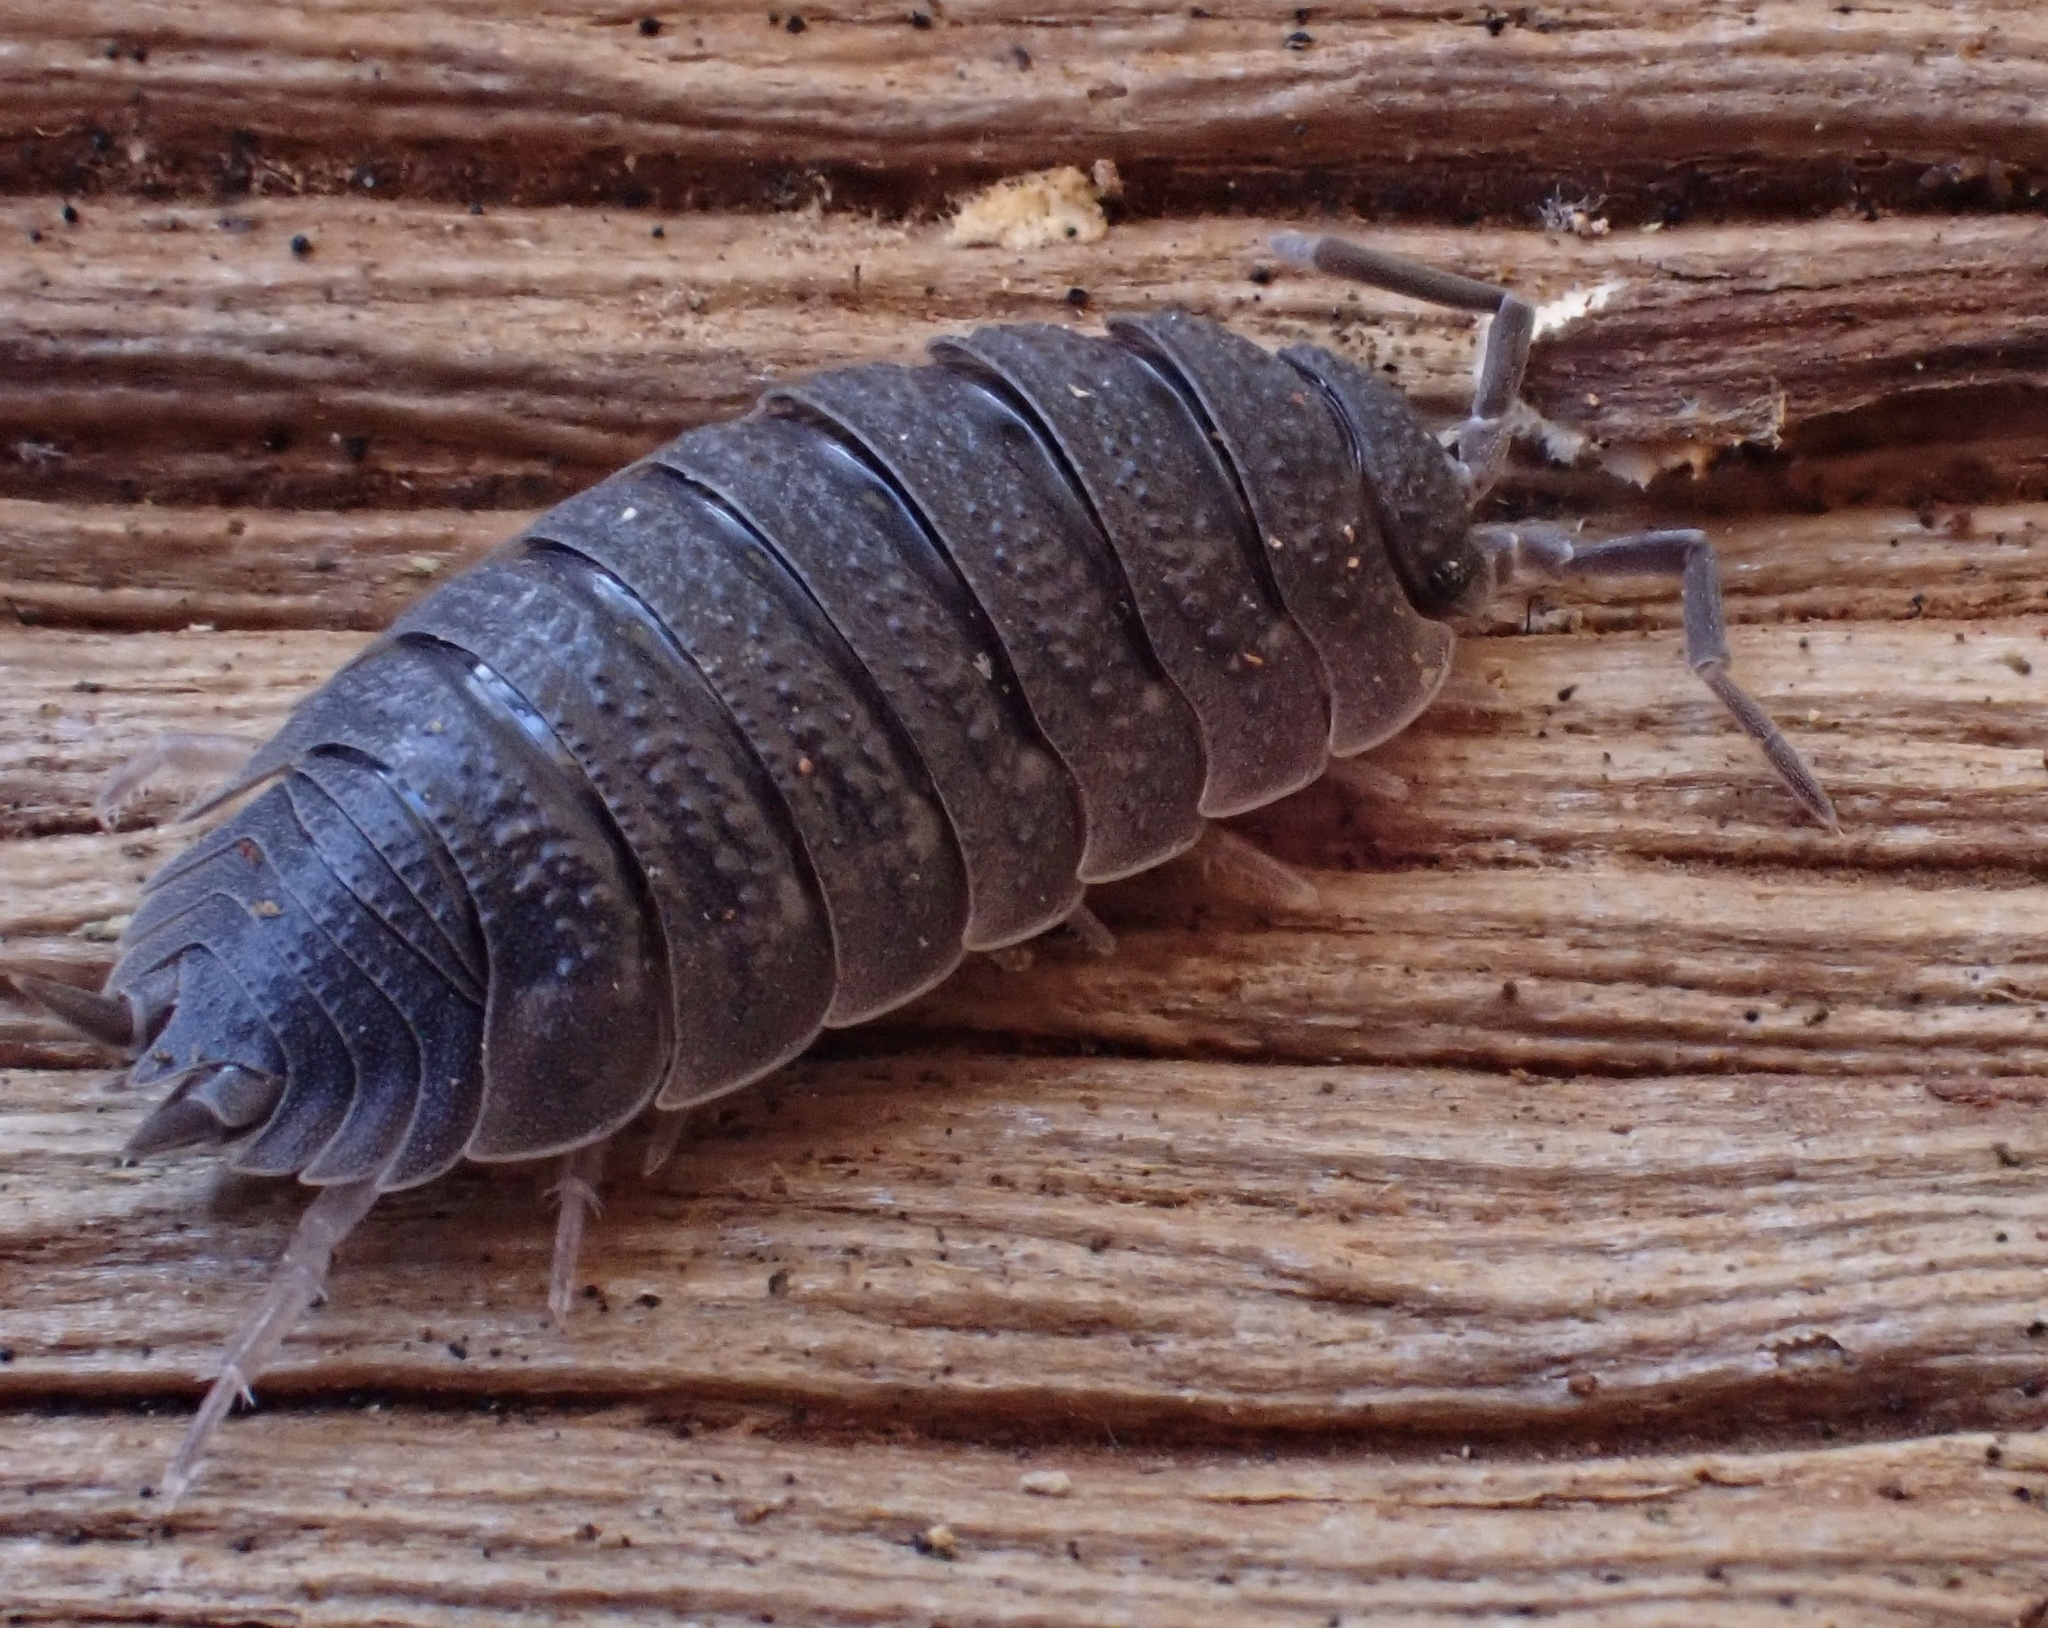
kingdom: Animalia
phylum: Arthropoda
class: Malacostraca
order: Isopoda
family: Porcellionidae
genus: Porcellio
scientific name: Porcellio scaber
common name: Common rough woodlouse
